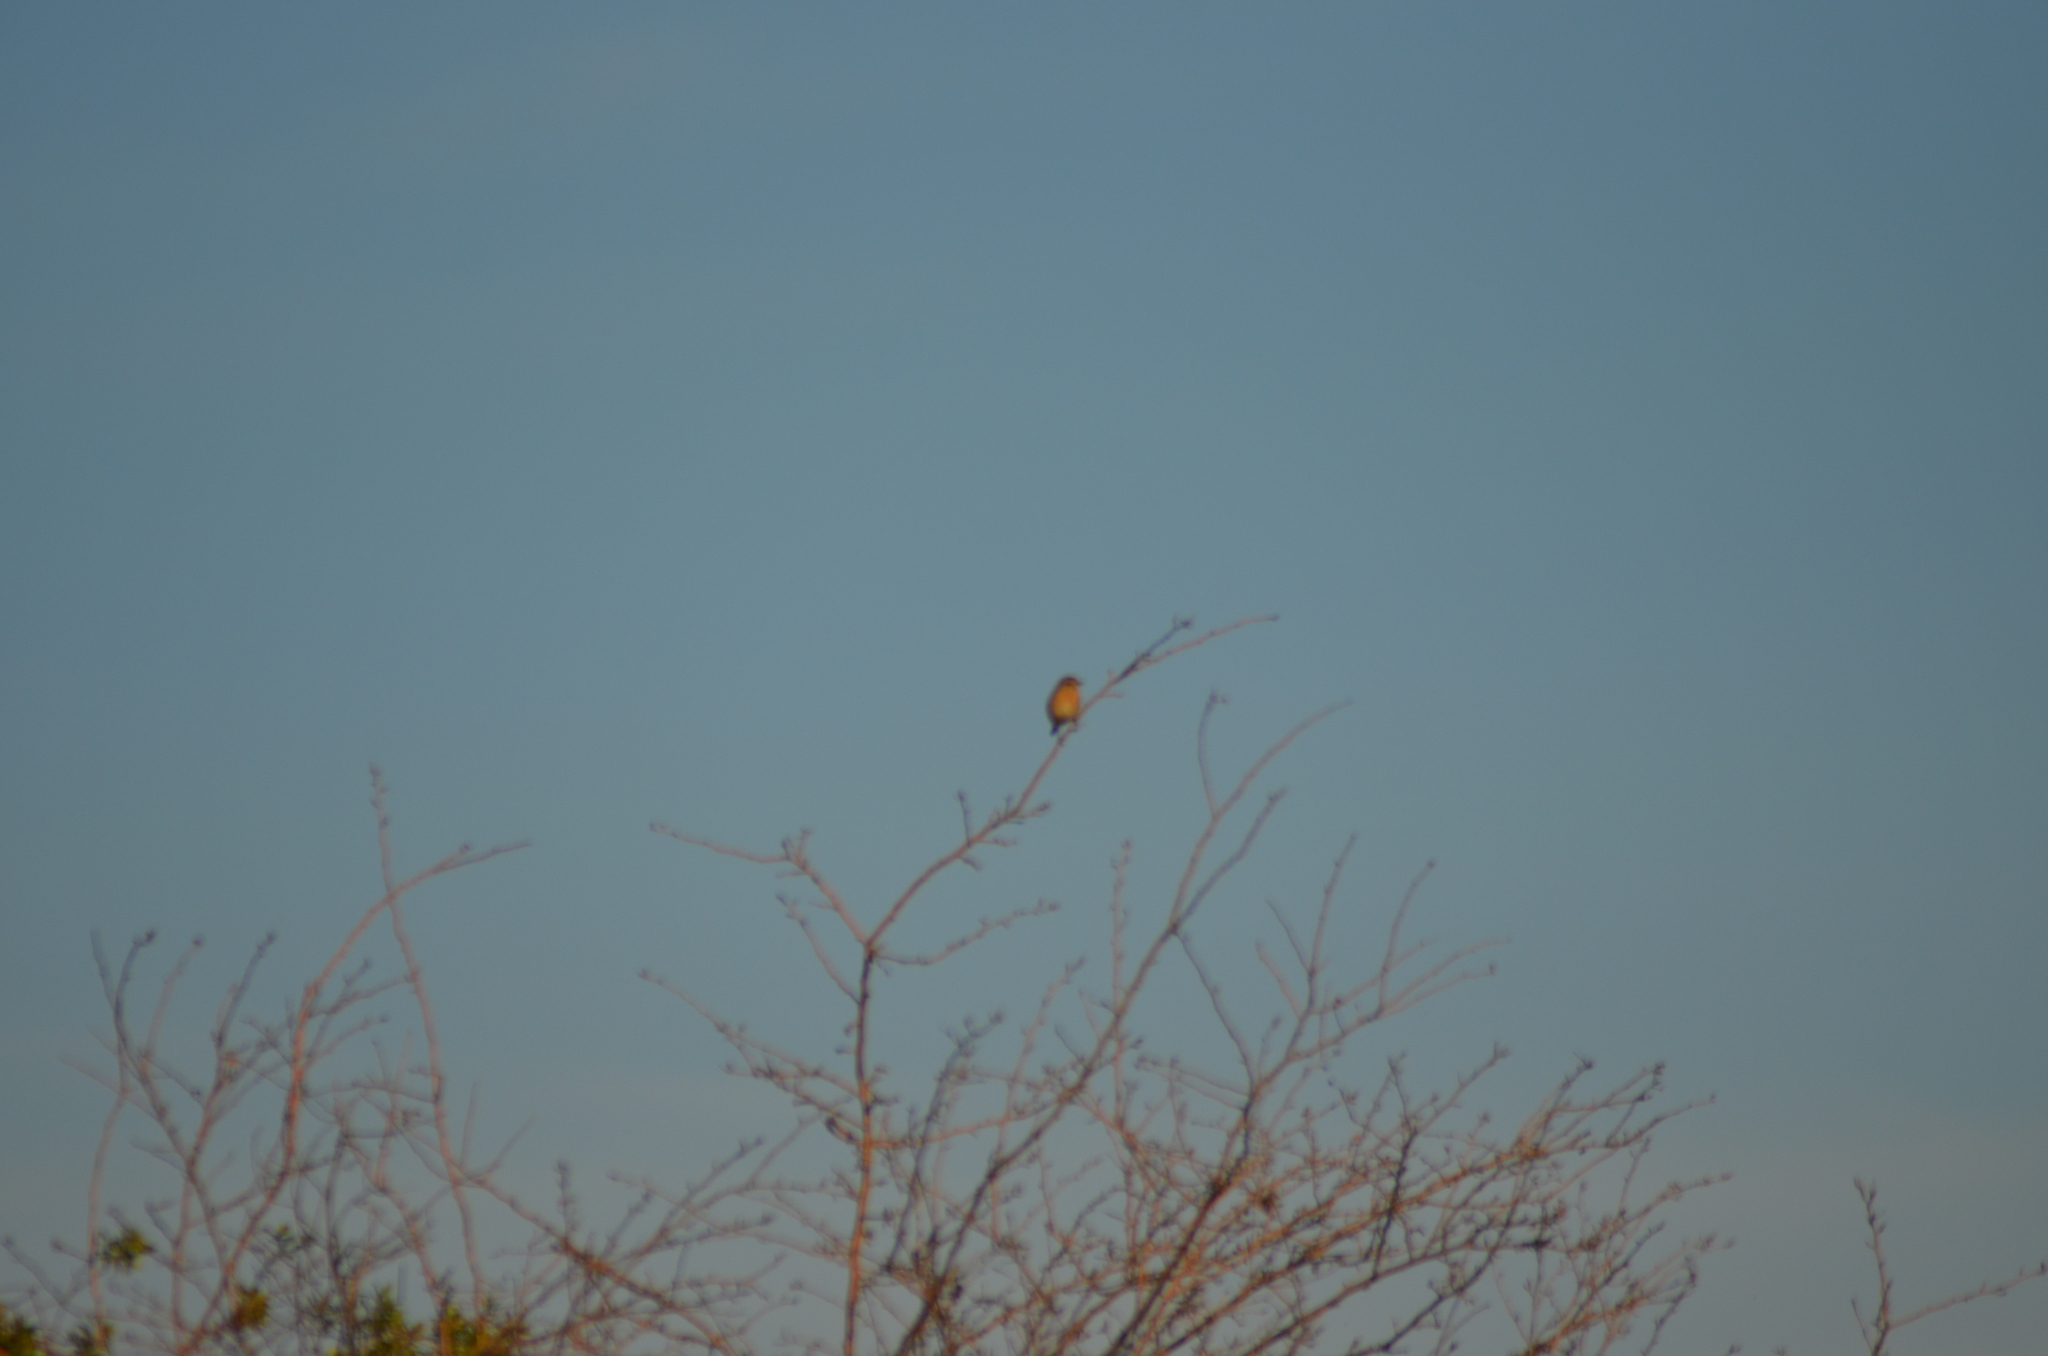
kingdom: Animalia
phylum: Chordata
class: Aves
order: Passeriformes
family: Muscicapidae
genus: Saxicola
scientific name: Saxicola rubicola
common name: European stonechat
